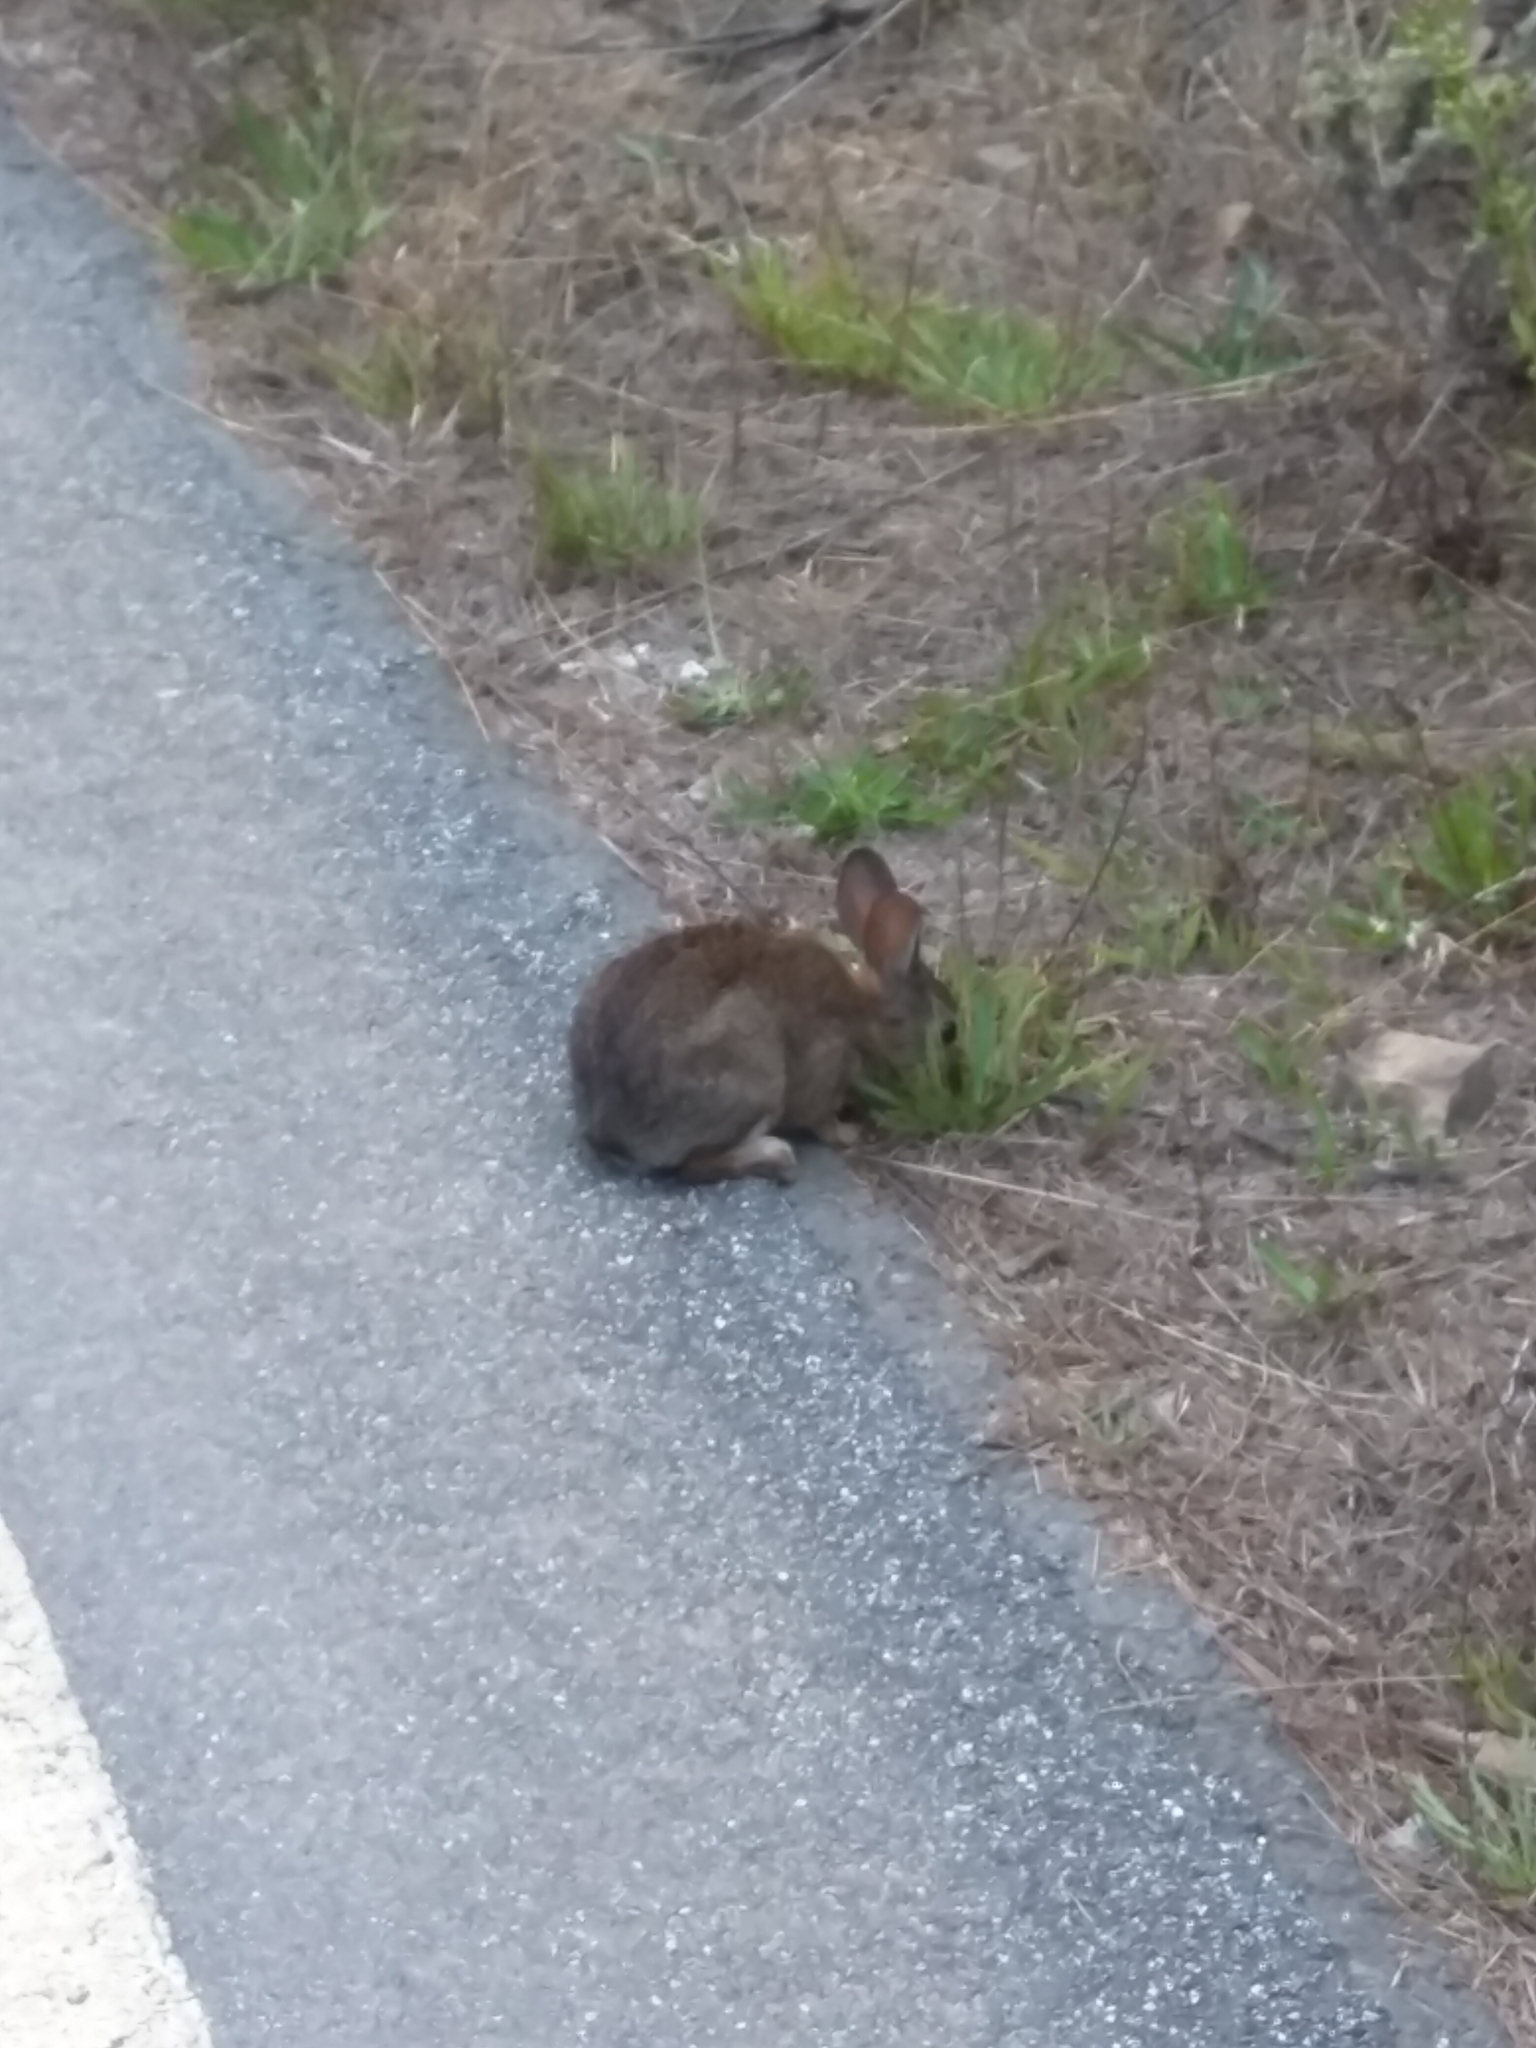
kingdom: Animalia
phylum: Chordata
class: Mammalia
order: Lagomorpha
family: Leporidae
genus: Sylvilagus
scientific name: Sylvilagus bachmani
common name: Brush rabbit
